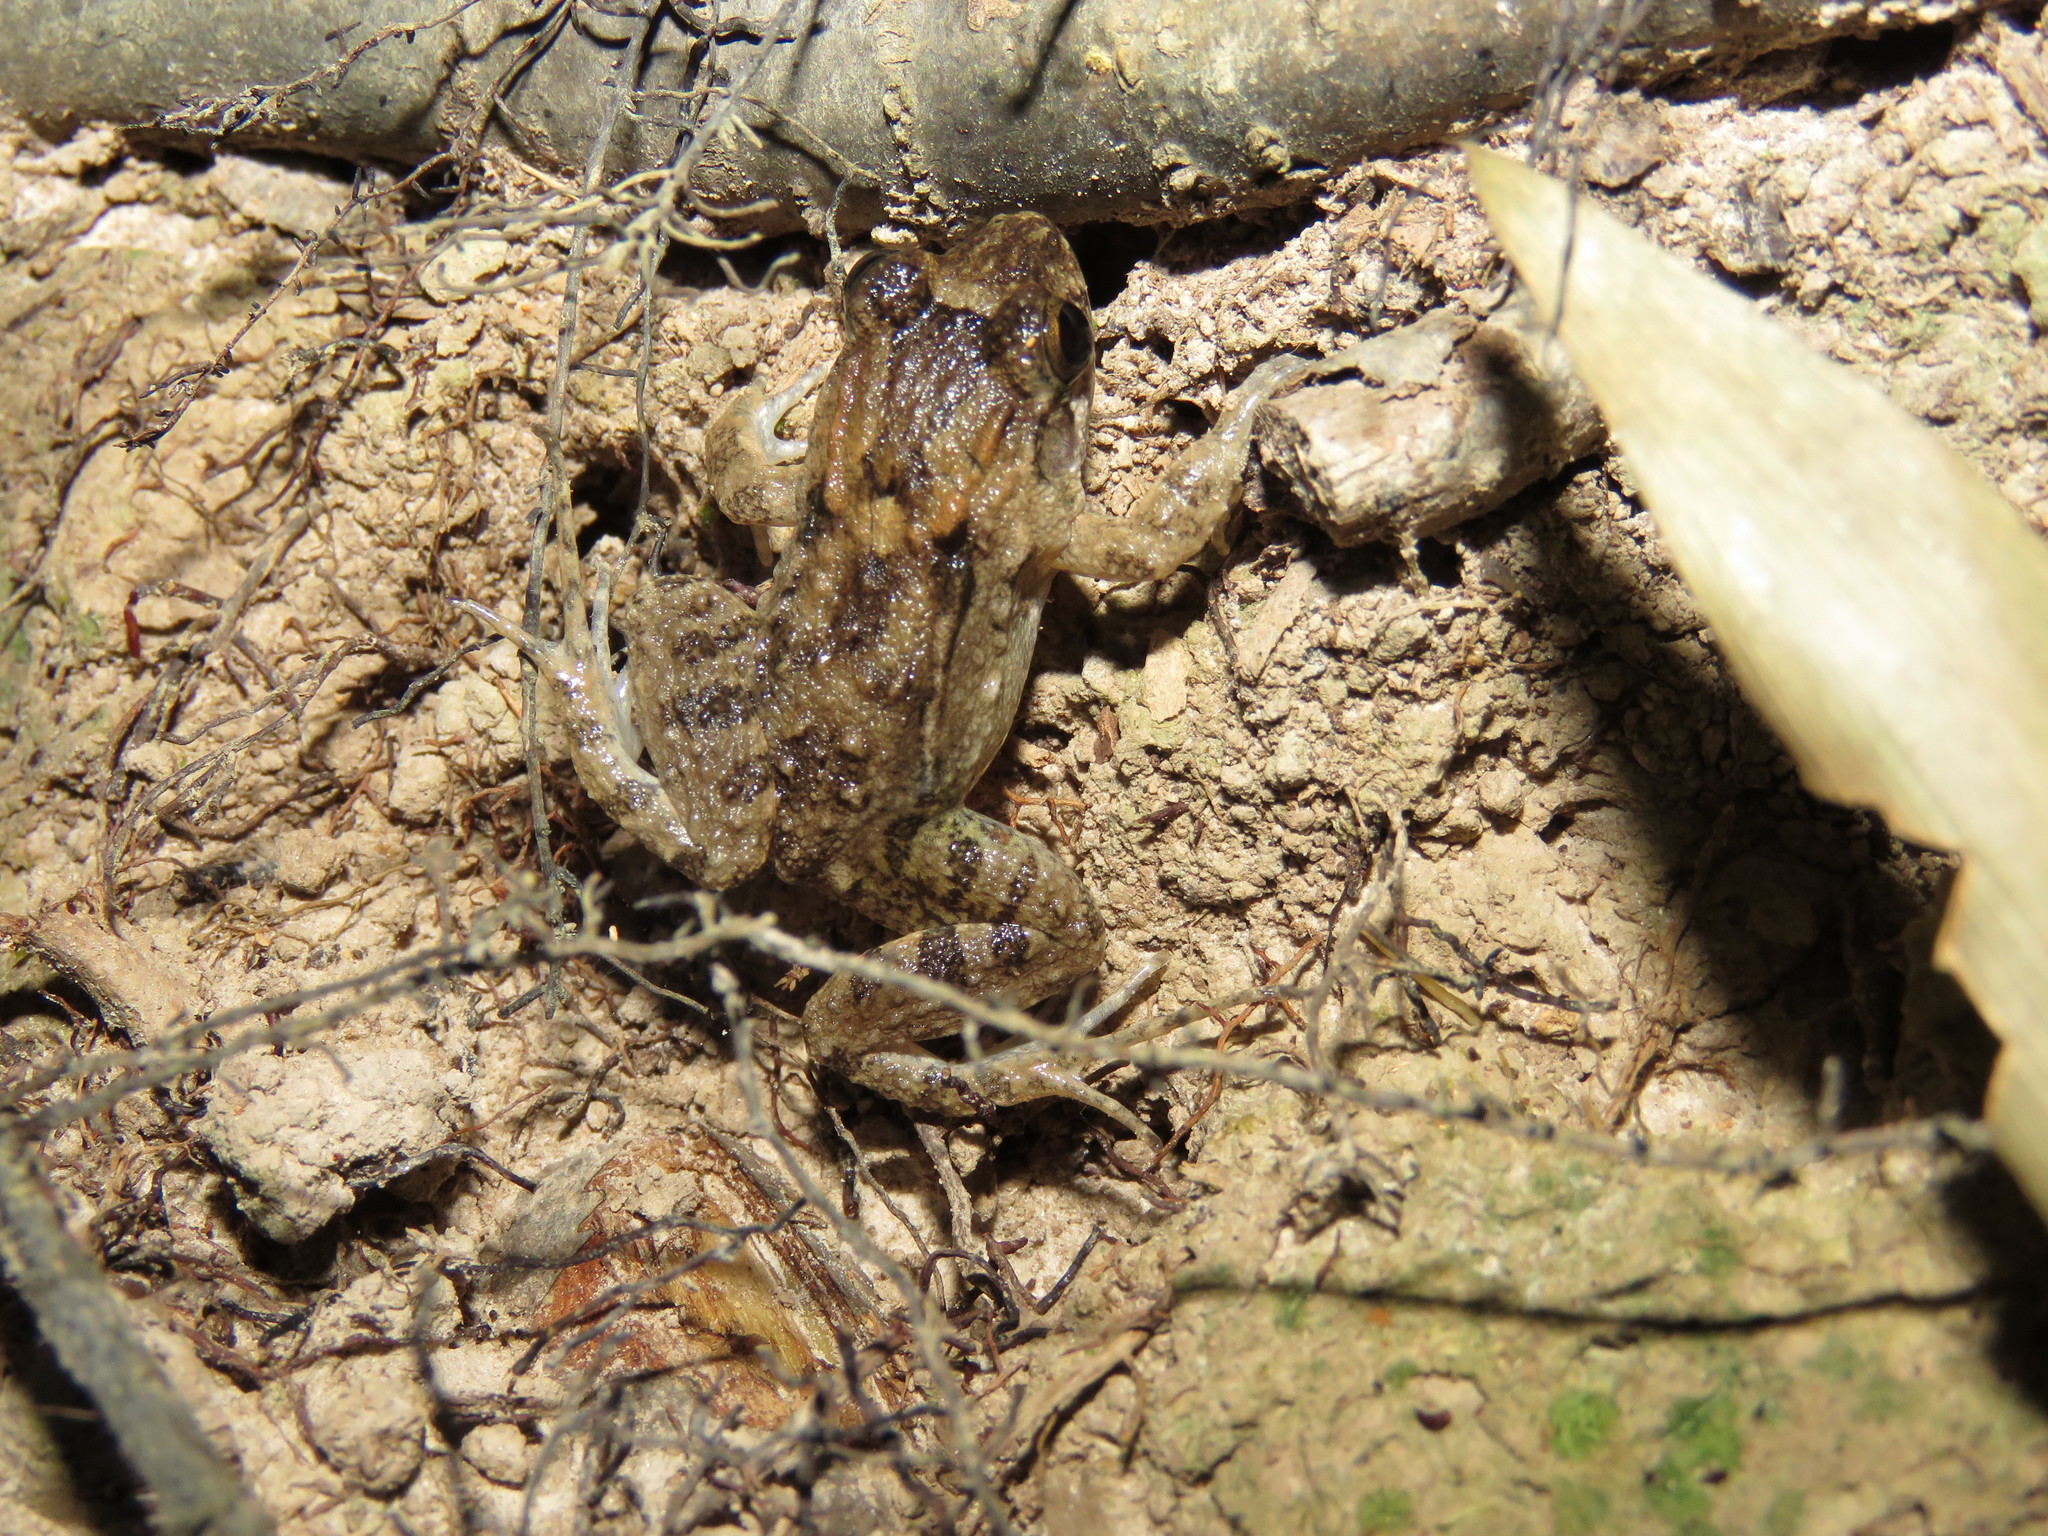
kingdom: Animalia
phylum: Chordata
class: Amphibia
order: Anura
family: Leptodactylidae
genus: Leptodactylus
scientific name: Leptodactylus leptodactyloides
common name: Common thin-toed frog
